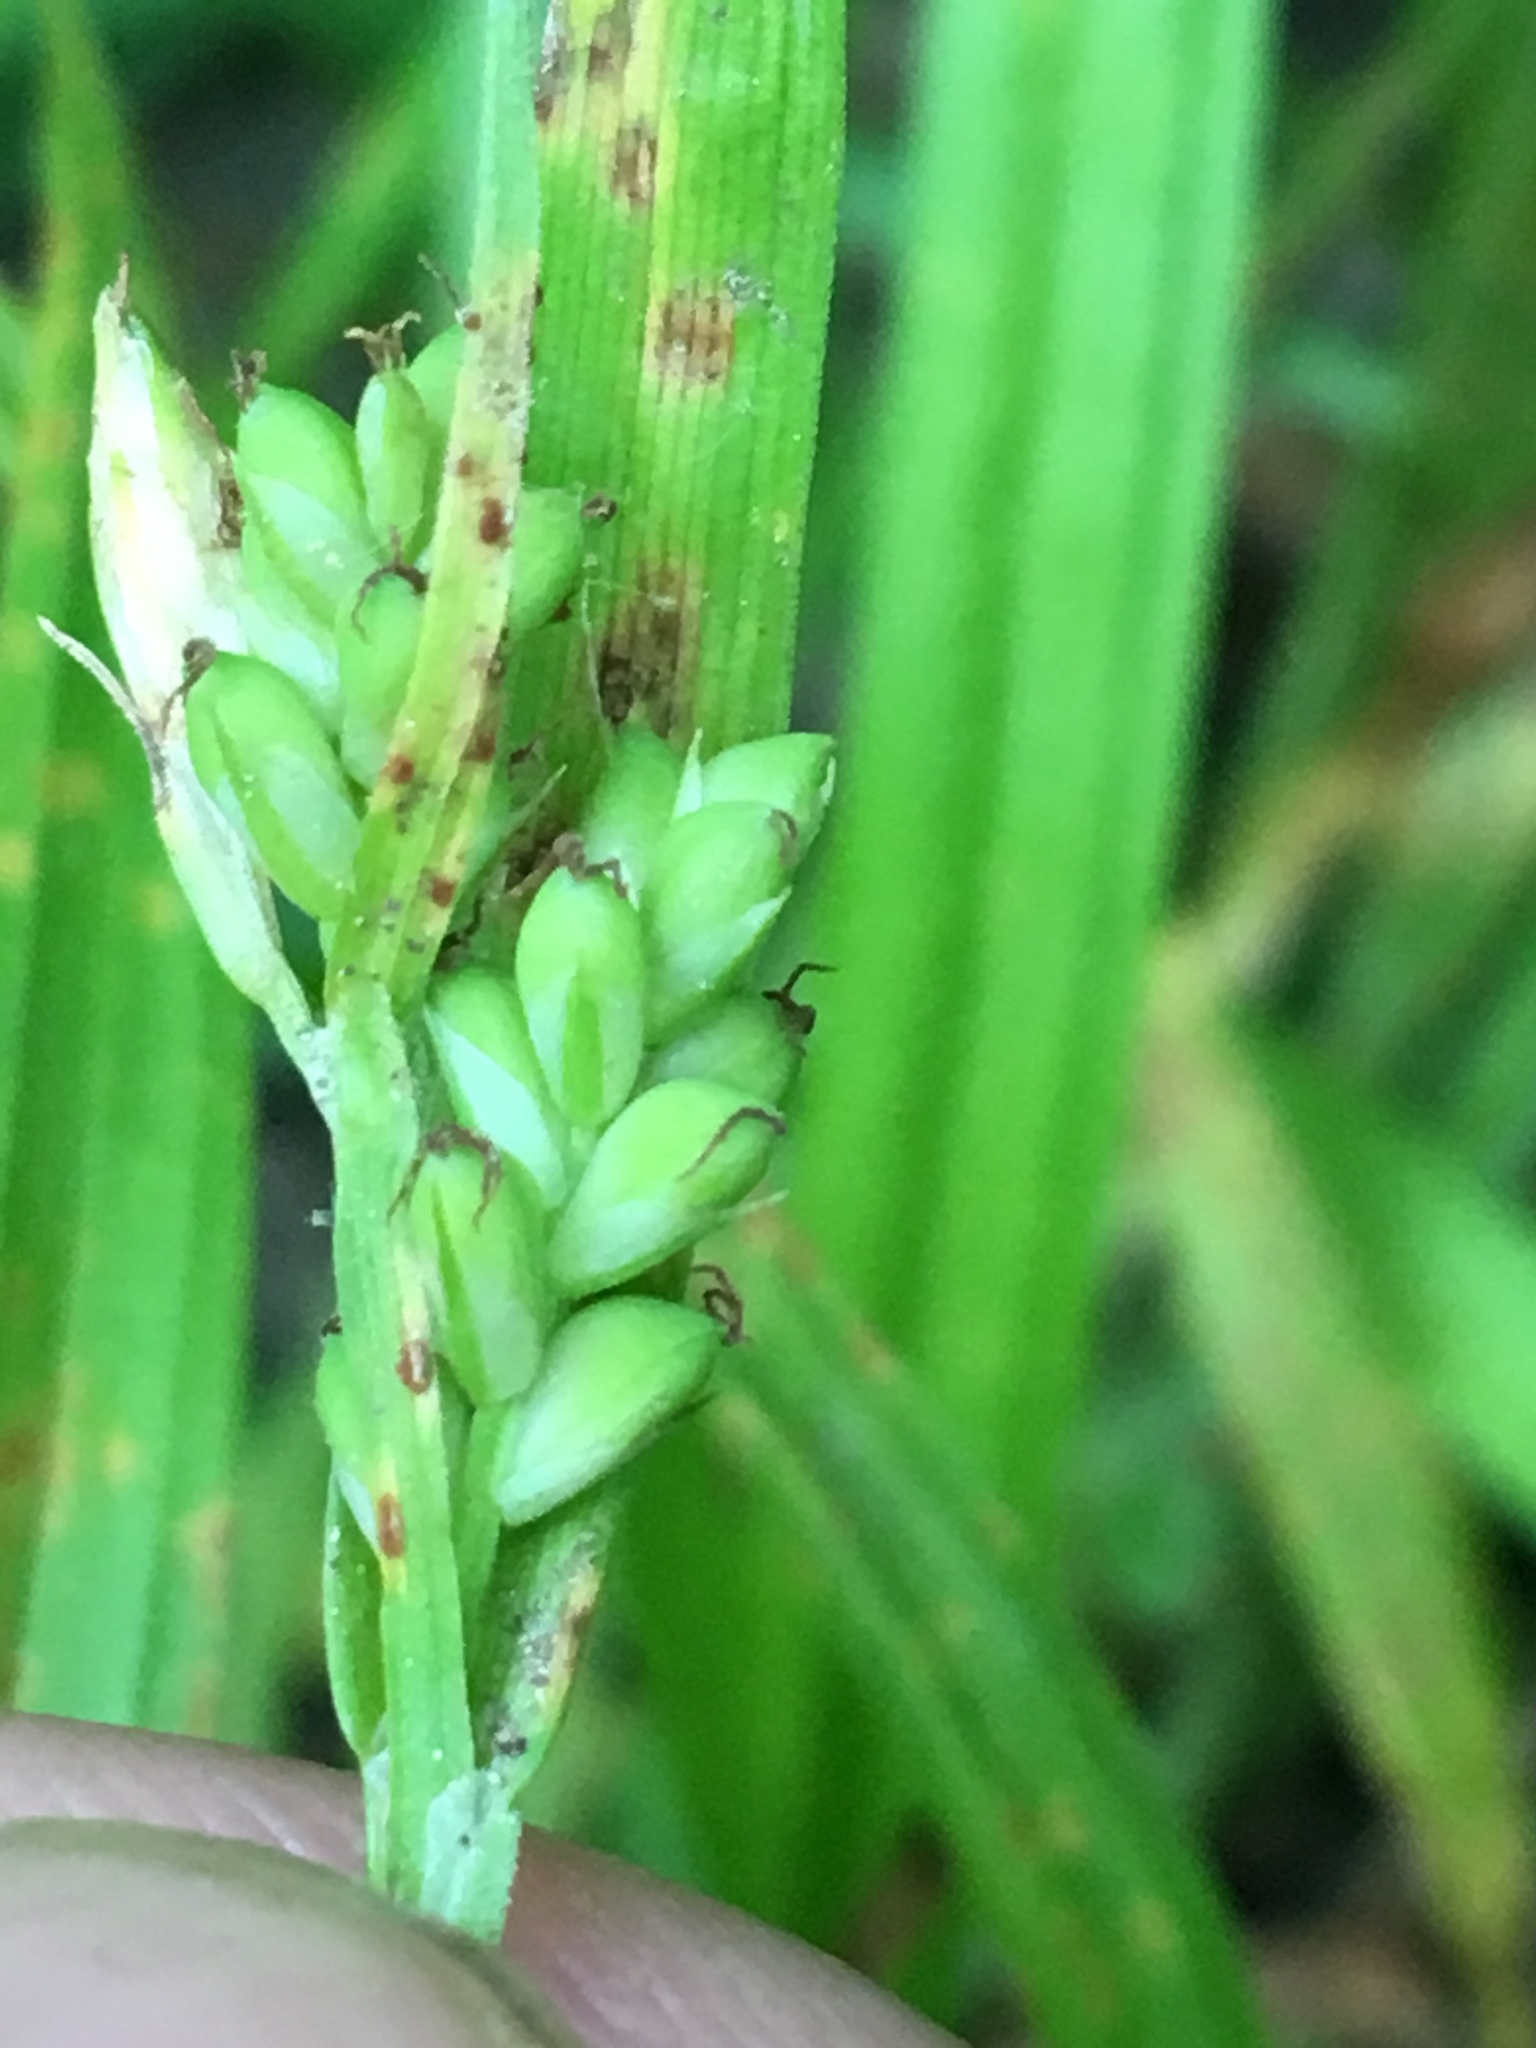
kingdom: Plantae
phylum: Tracheophyta
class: Liliopsida
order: Poales
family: Cyperaceae
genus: Carex
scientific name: Carex blanda
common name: Bland sedge
